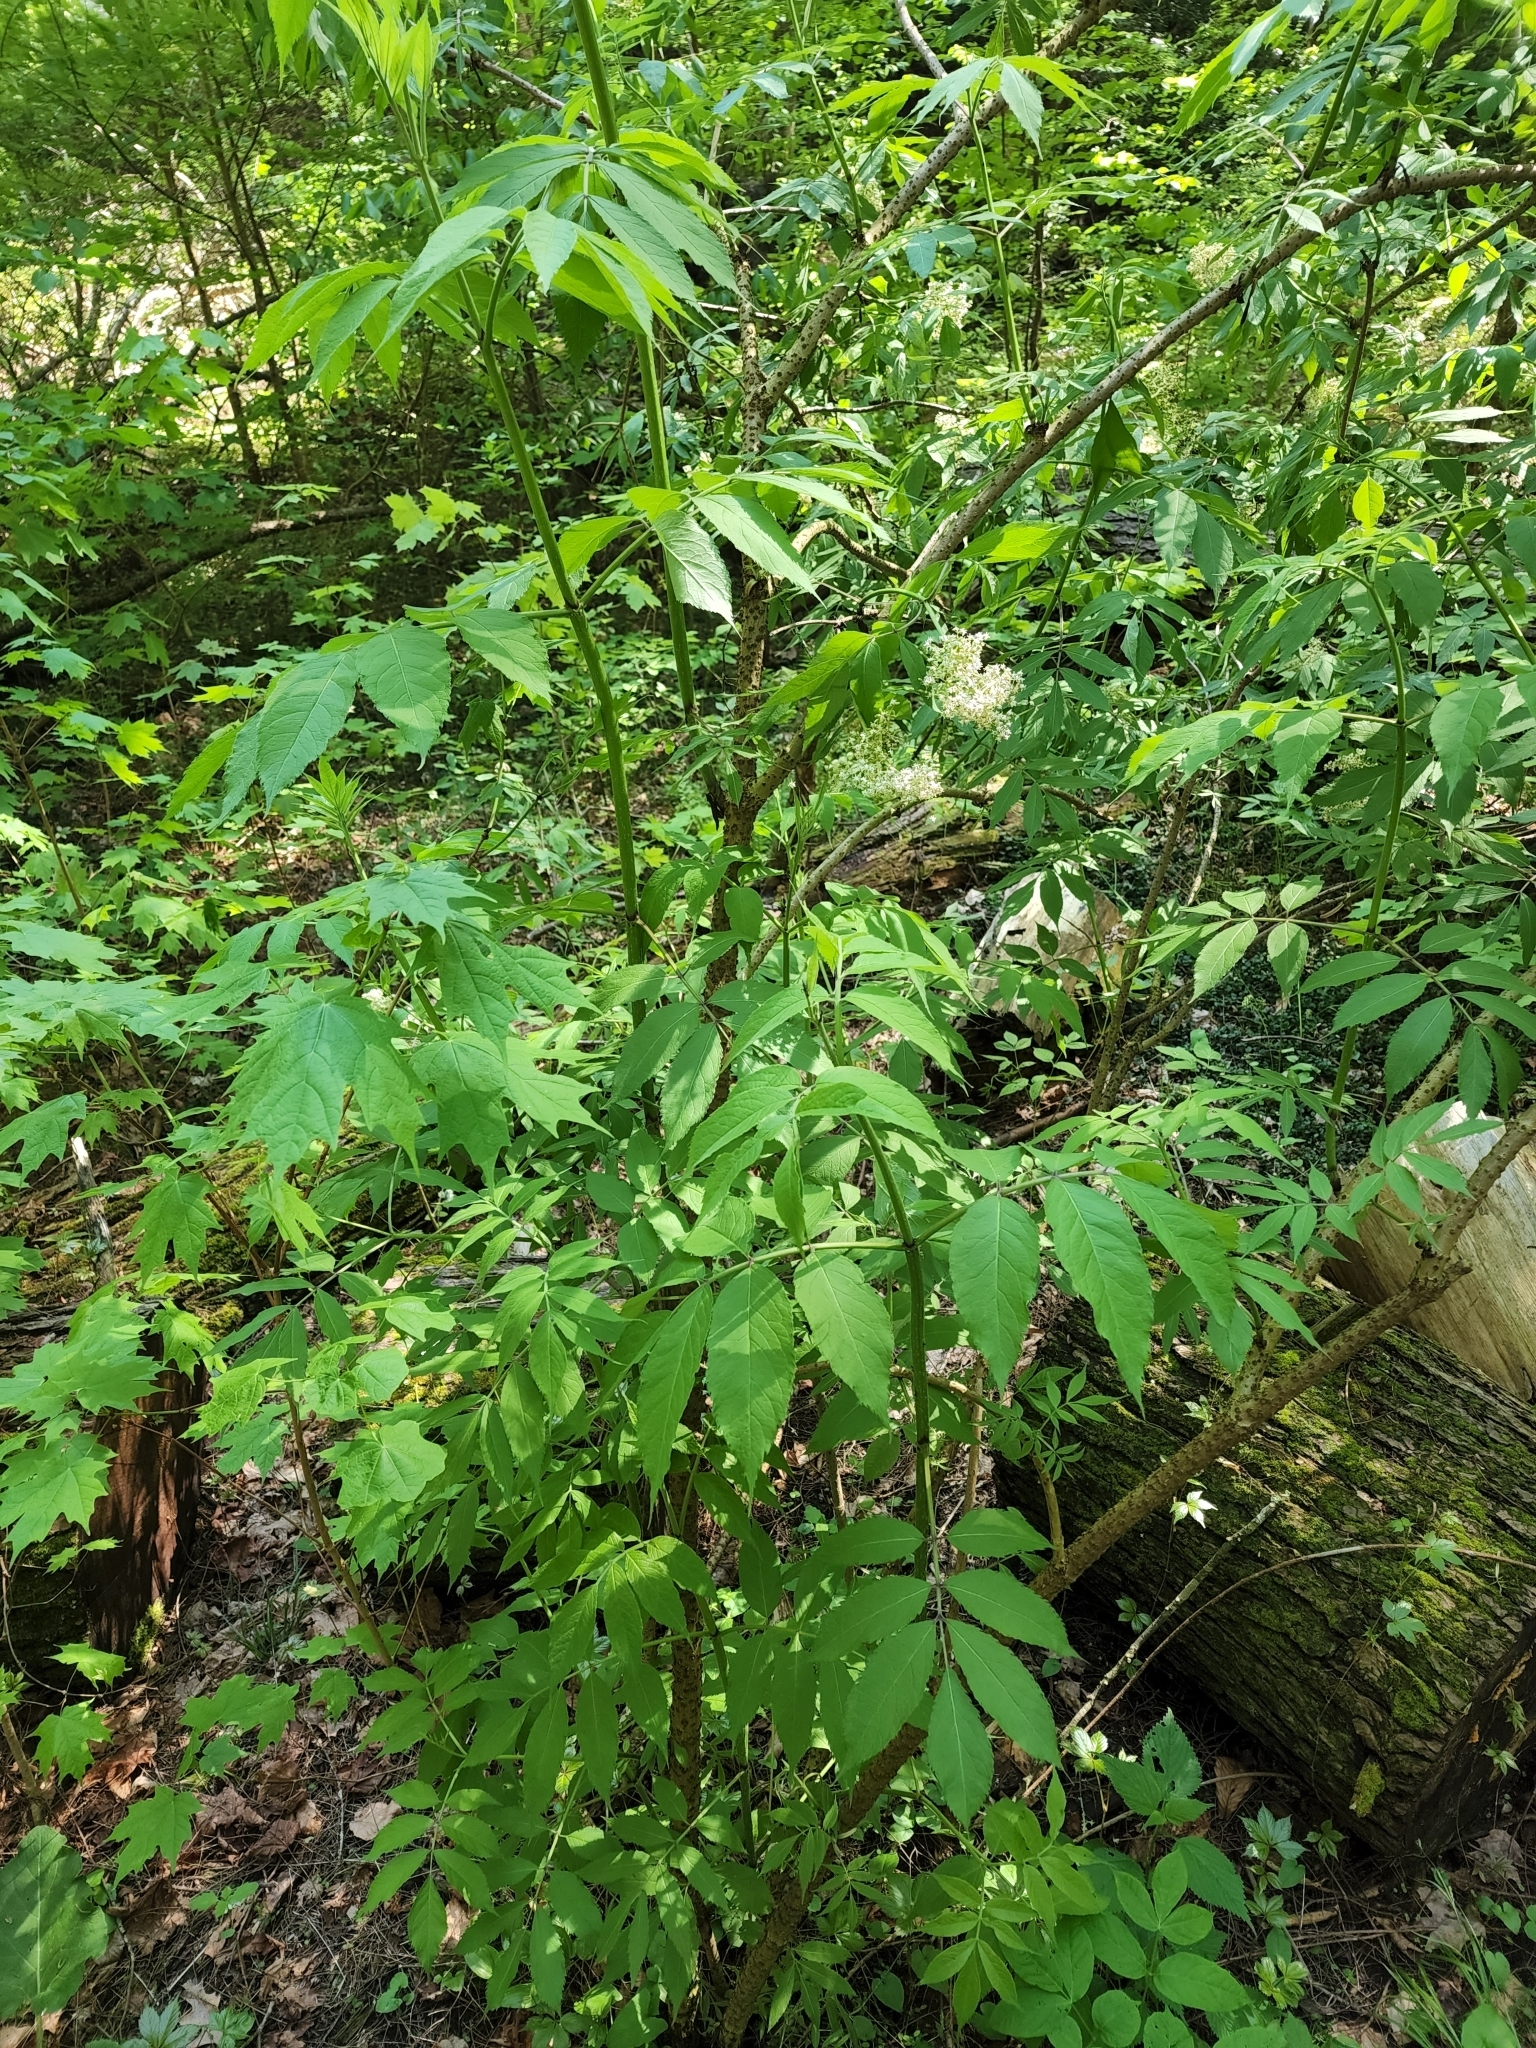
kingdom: Plantae
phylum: Tracheophyta
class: Magnoliopsida
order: Lamiales
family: Oleaceae
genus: Fraxinus
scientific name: Fraxinus americana
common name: White ash
